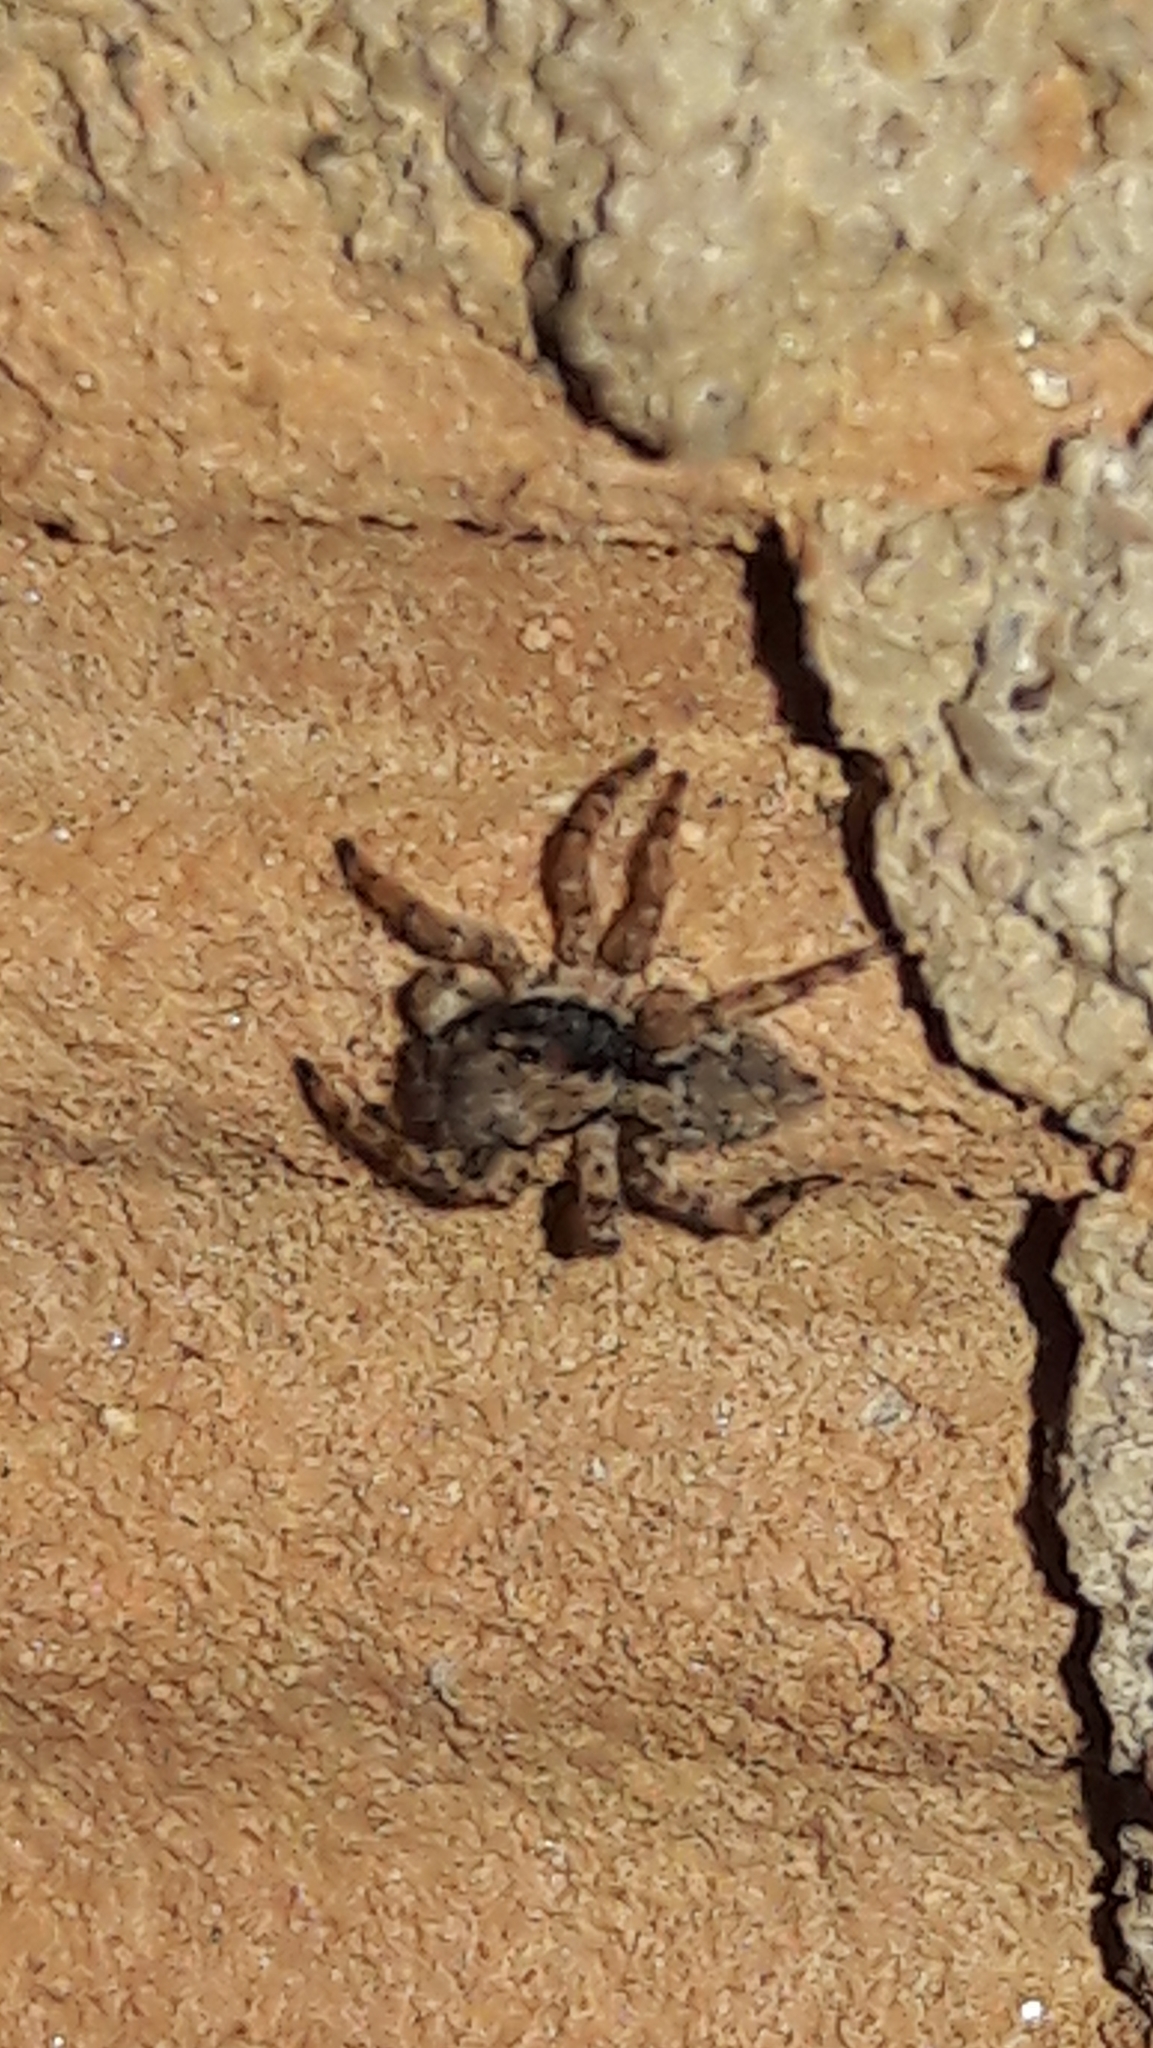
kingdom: Animalia
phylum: Arthropoda
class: Arachnida
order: Araneae
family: Salticidae
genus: Marma
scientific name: Marma nigritarsis
